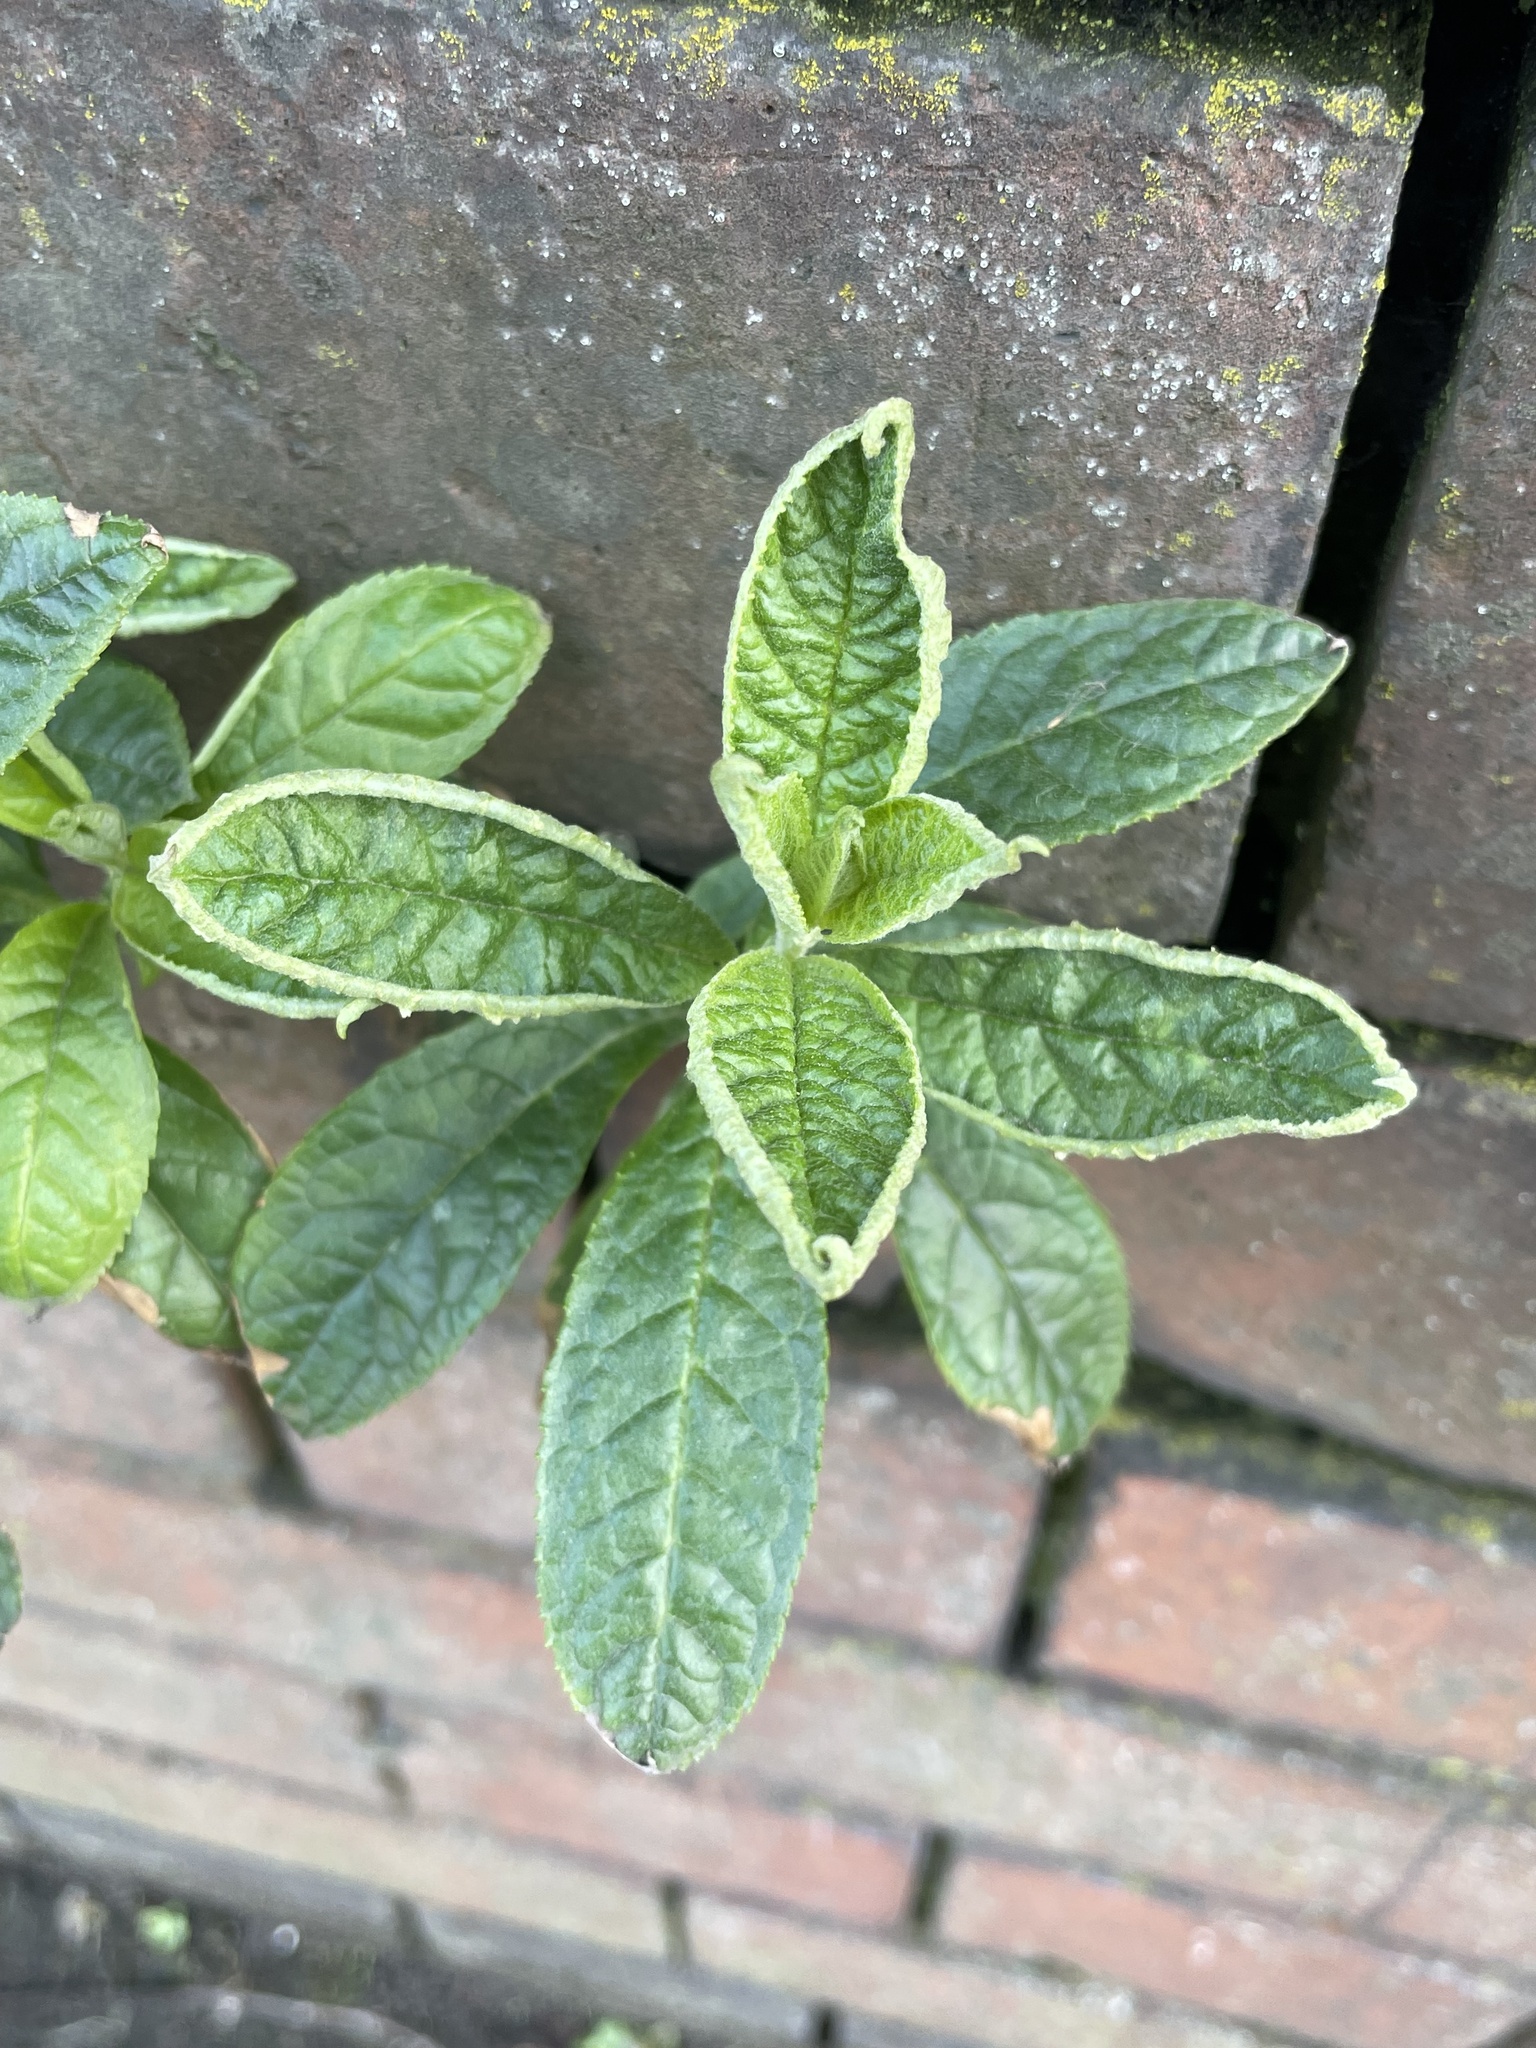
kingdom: Plantae
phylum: Tracheophyta
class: Magnoliopsida
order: Lamiales
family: Scrophulariaceae
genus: Buddleja
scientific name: Buddleja davidii
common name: Butterfly-bush
